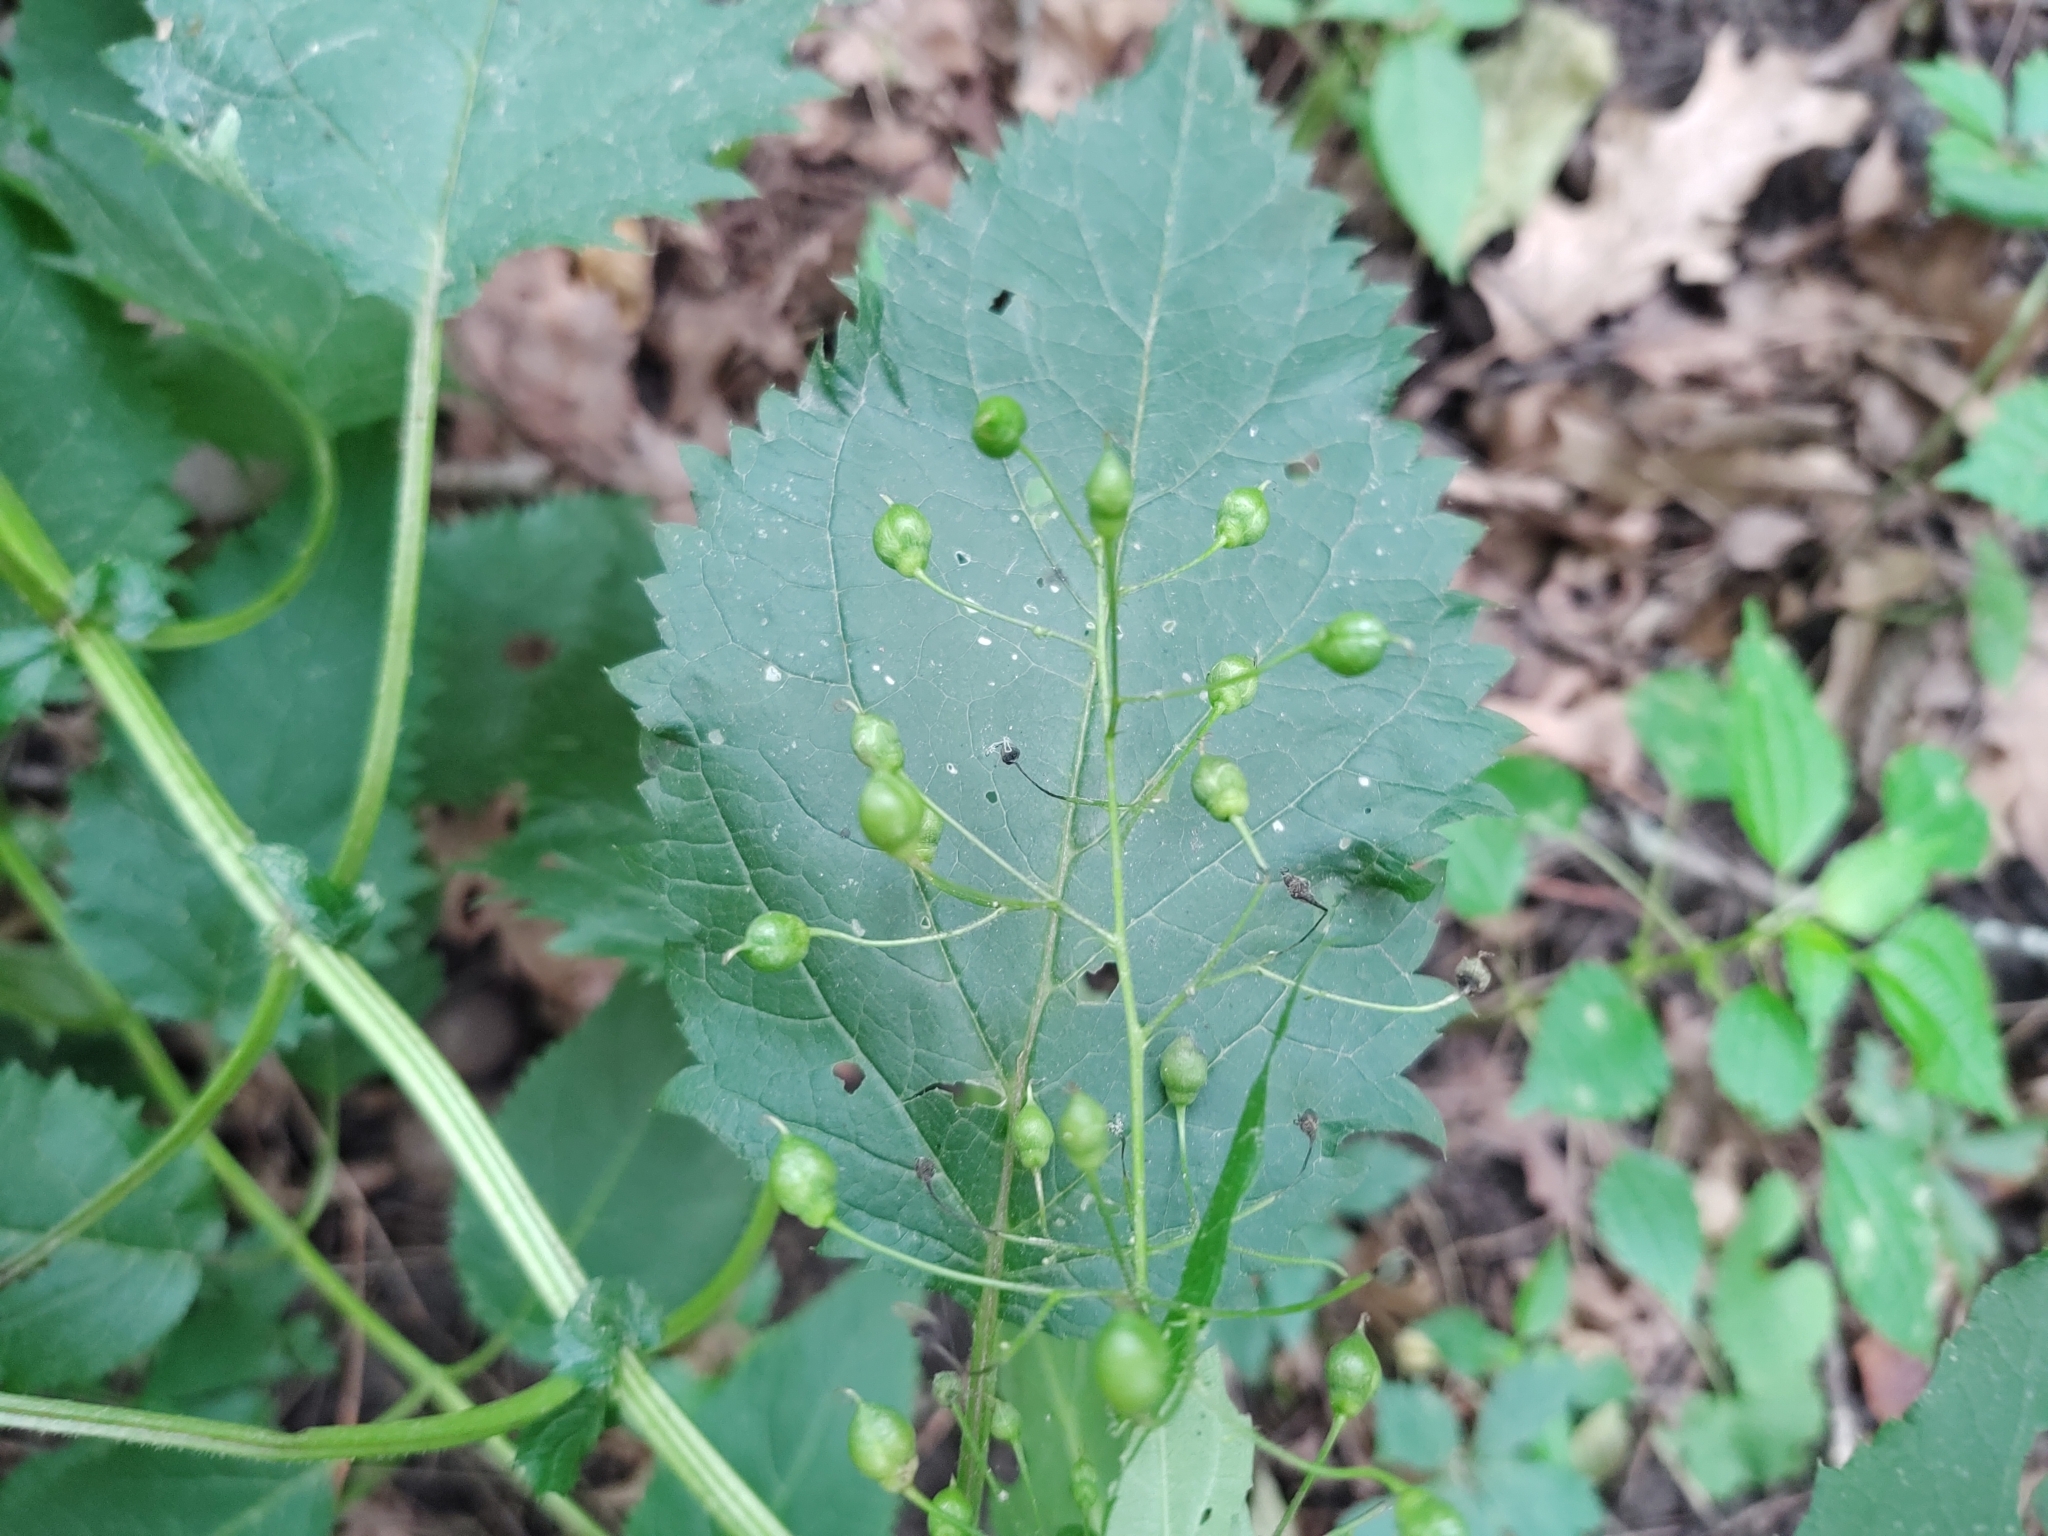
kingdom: Plantae
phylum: Tracheophyta
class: Magnoliopsida
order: Lamiales
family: Scrophulariaceae
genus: Scrophularia
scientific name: Scrophularia marilandica
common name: Eastern figwort
